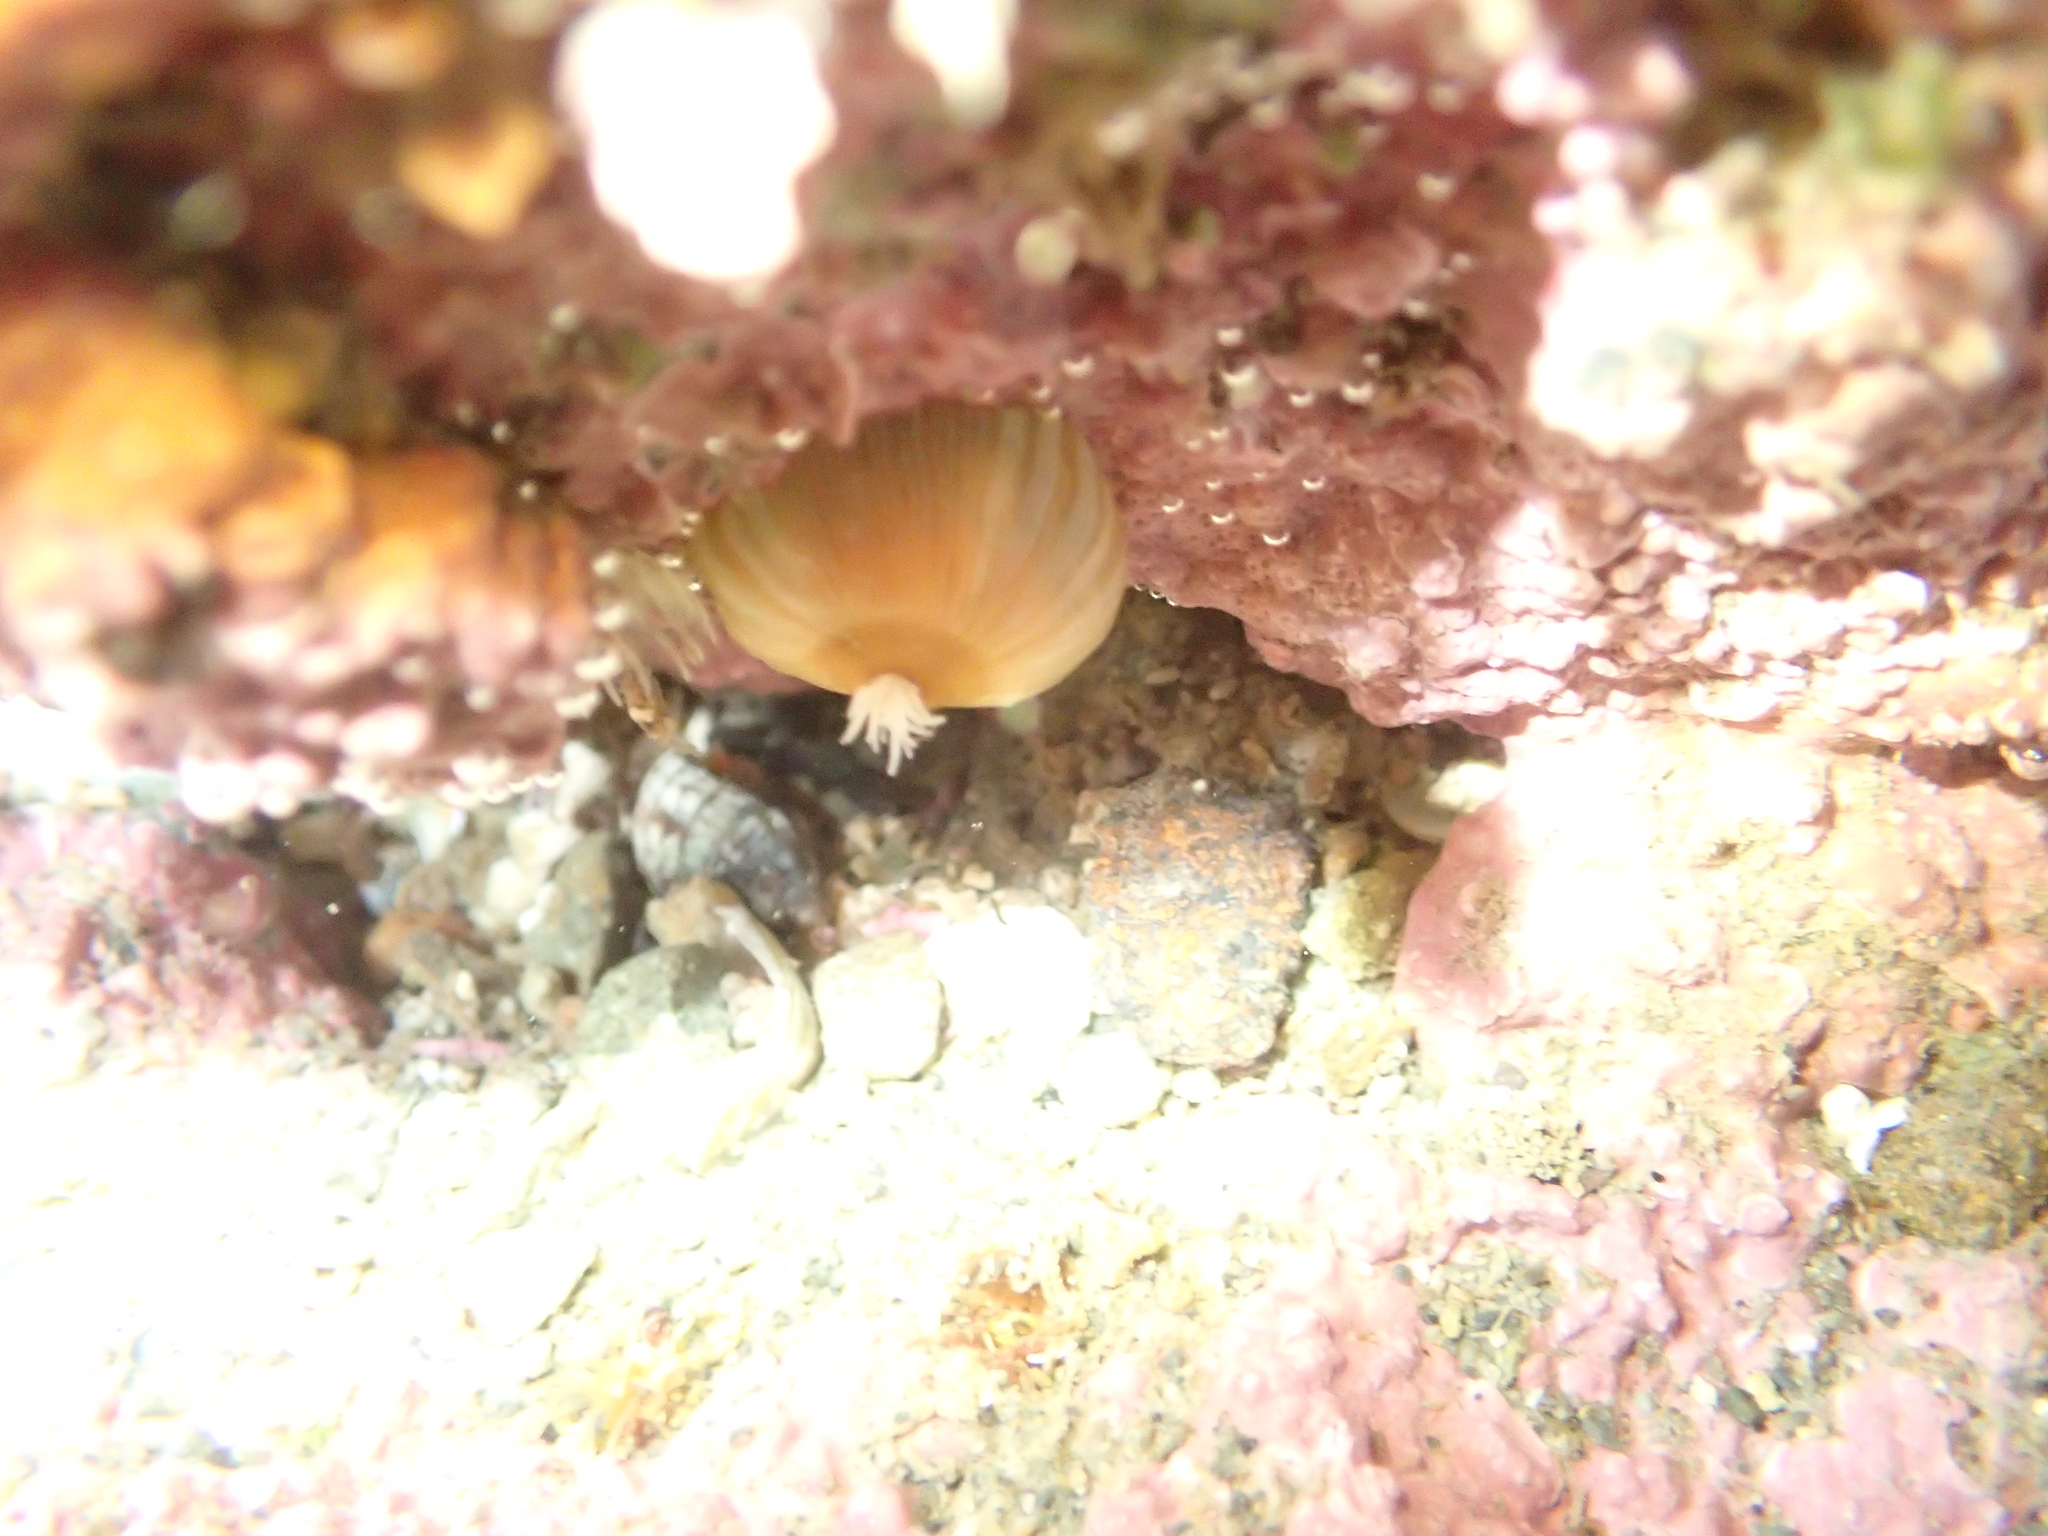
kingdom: Animalia
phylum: Cnidaria
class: Anthozoa
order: Actiniaria
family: Sagartiidae
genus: Anthothoe
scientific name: Anthothoe albocincta
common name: Orange striped anemone
